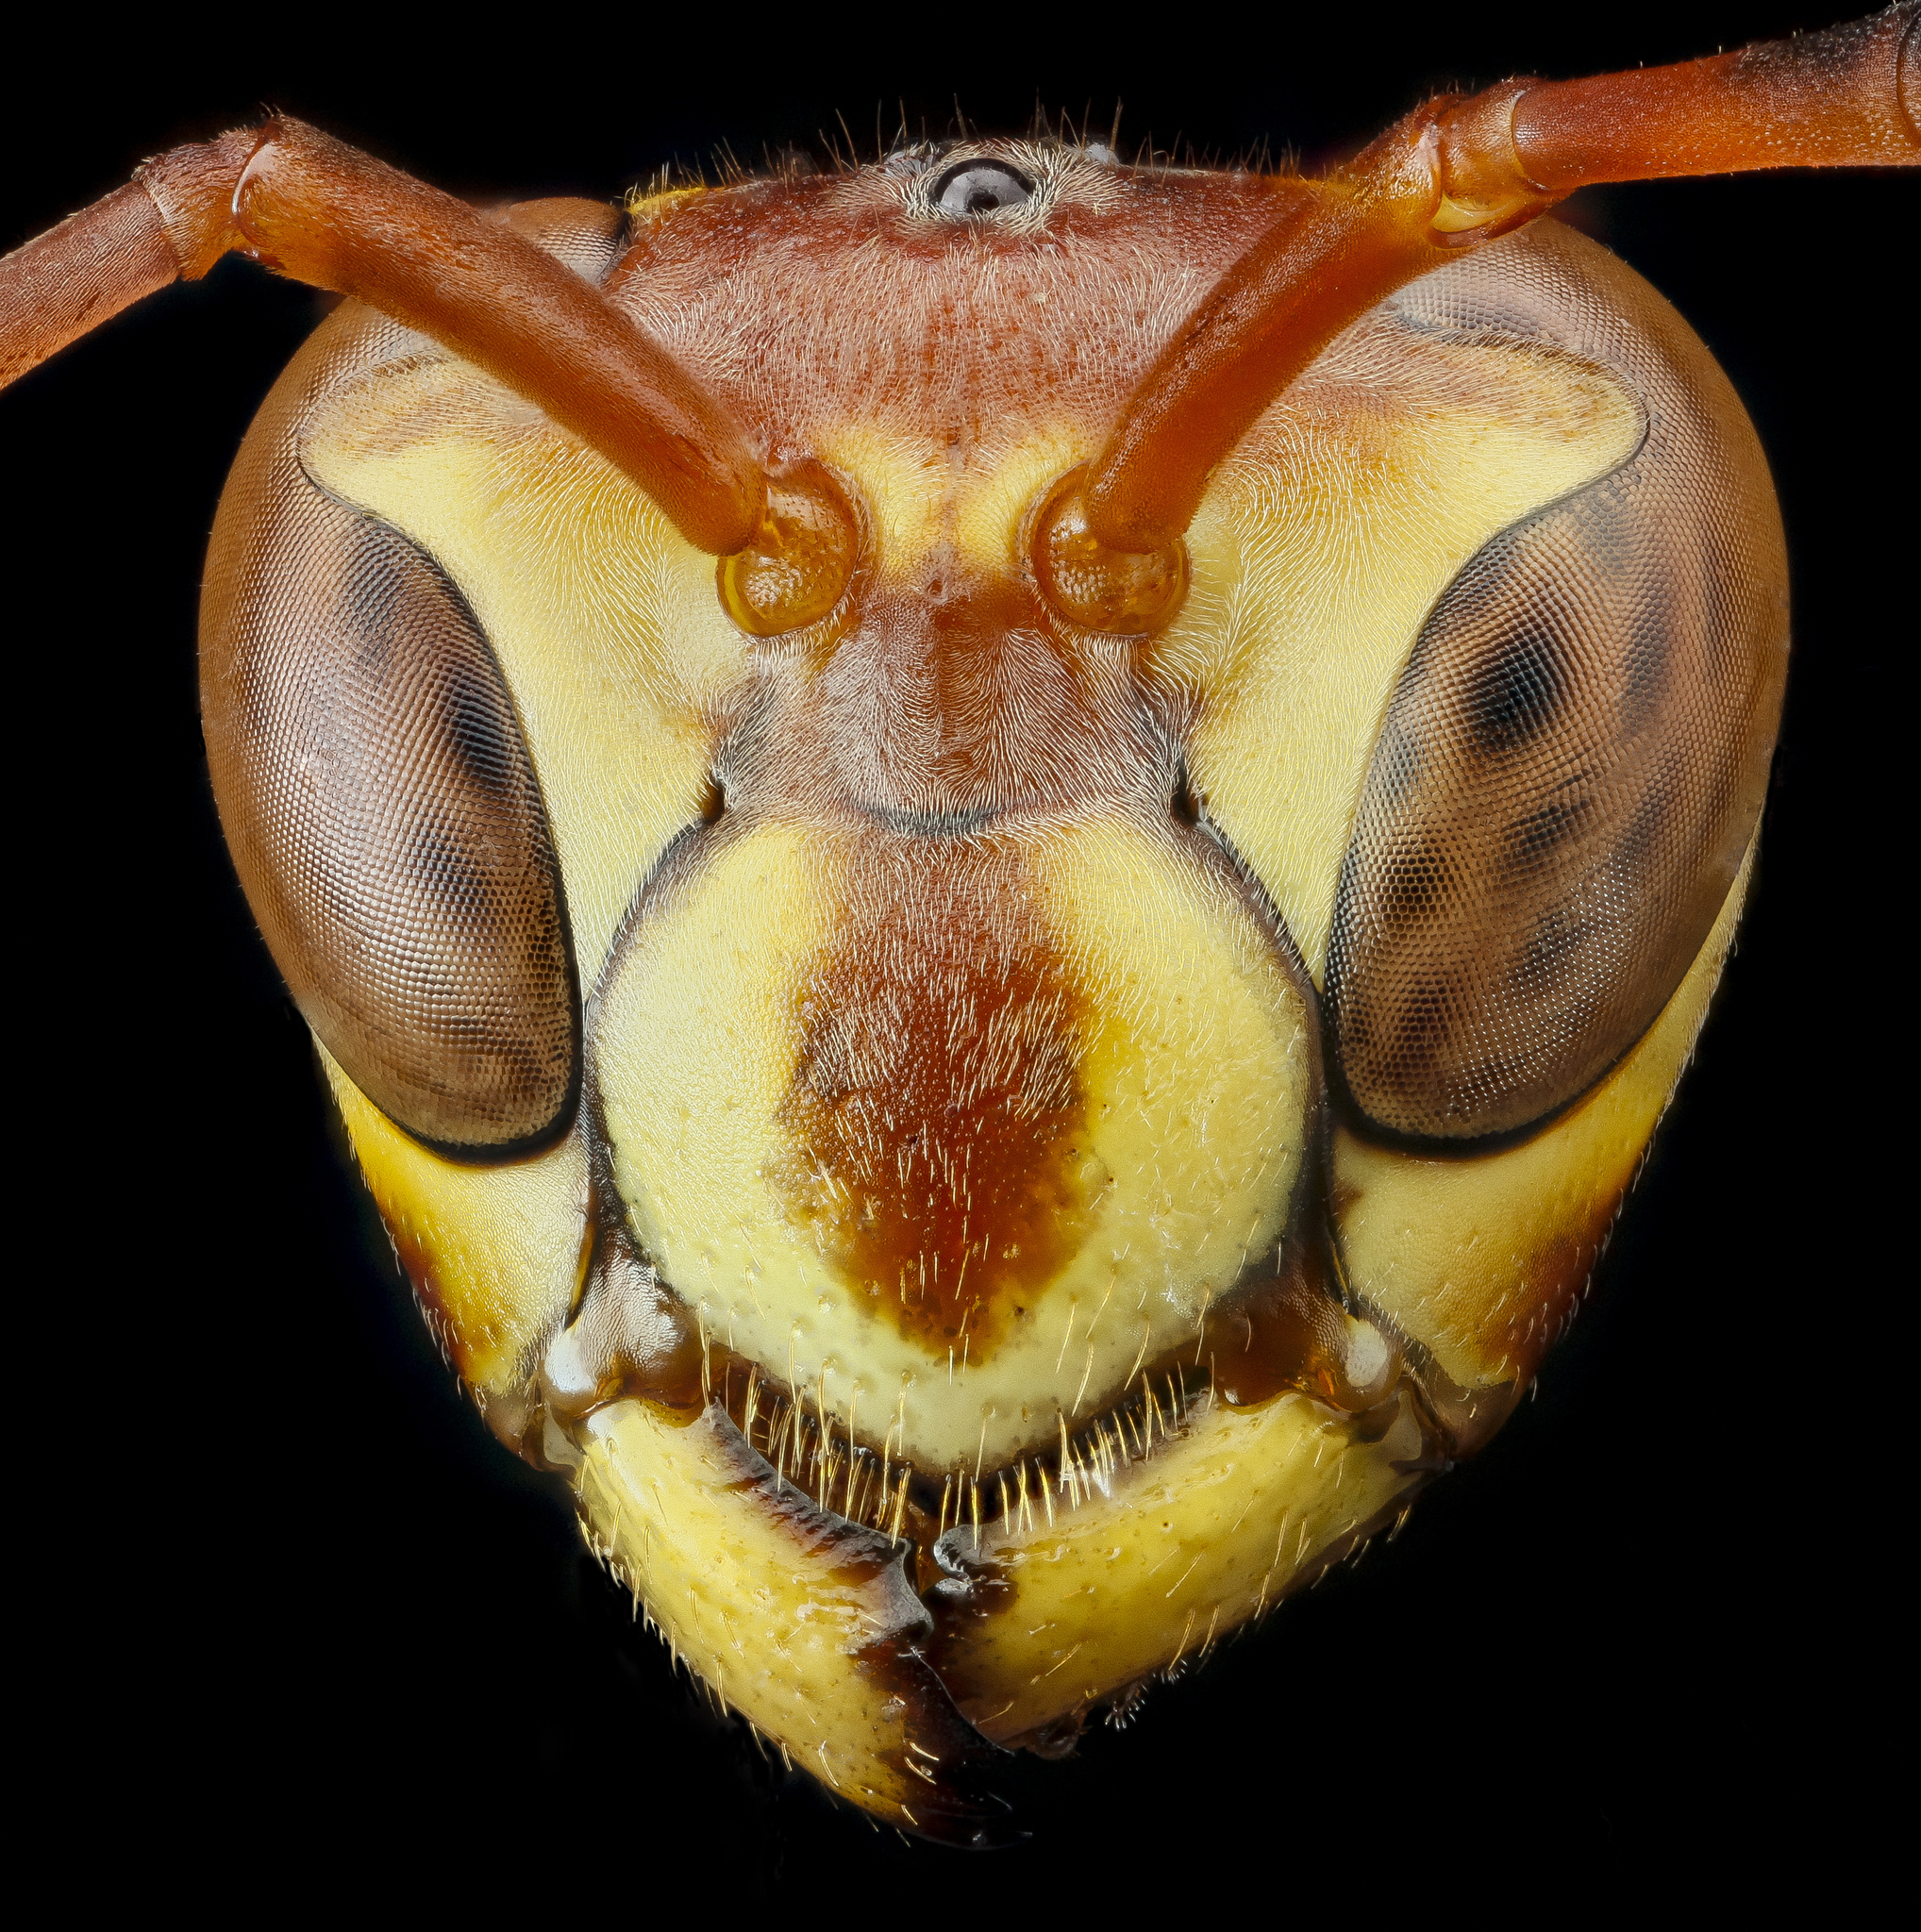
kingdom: Animalia
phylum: Arthropoda
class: Insecta
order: Hymenoptera
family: Eumenidae
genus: Polistes
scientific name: Polistes exclamans
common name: Paper wasp
